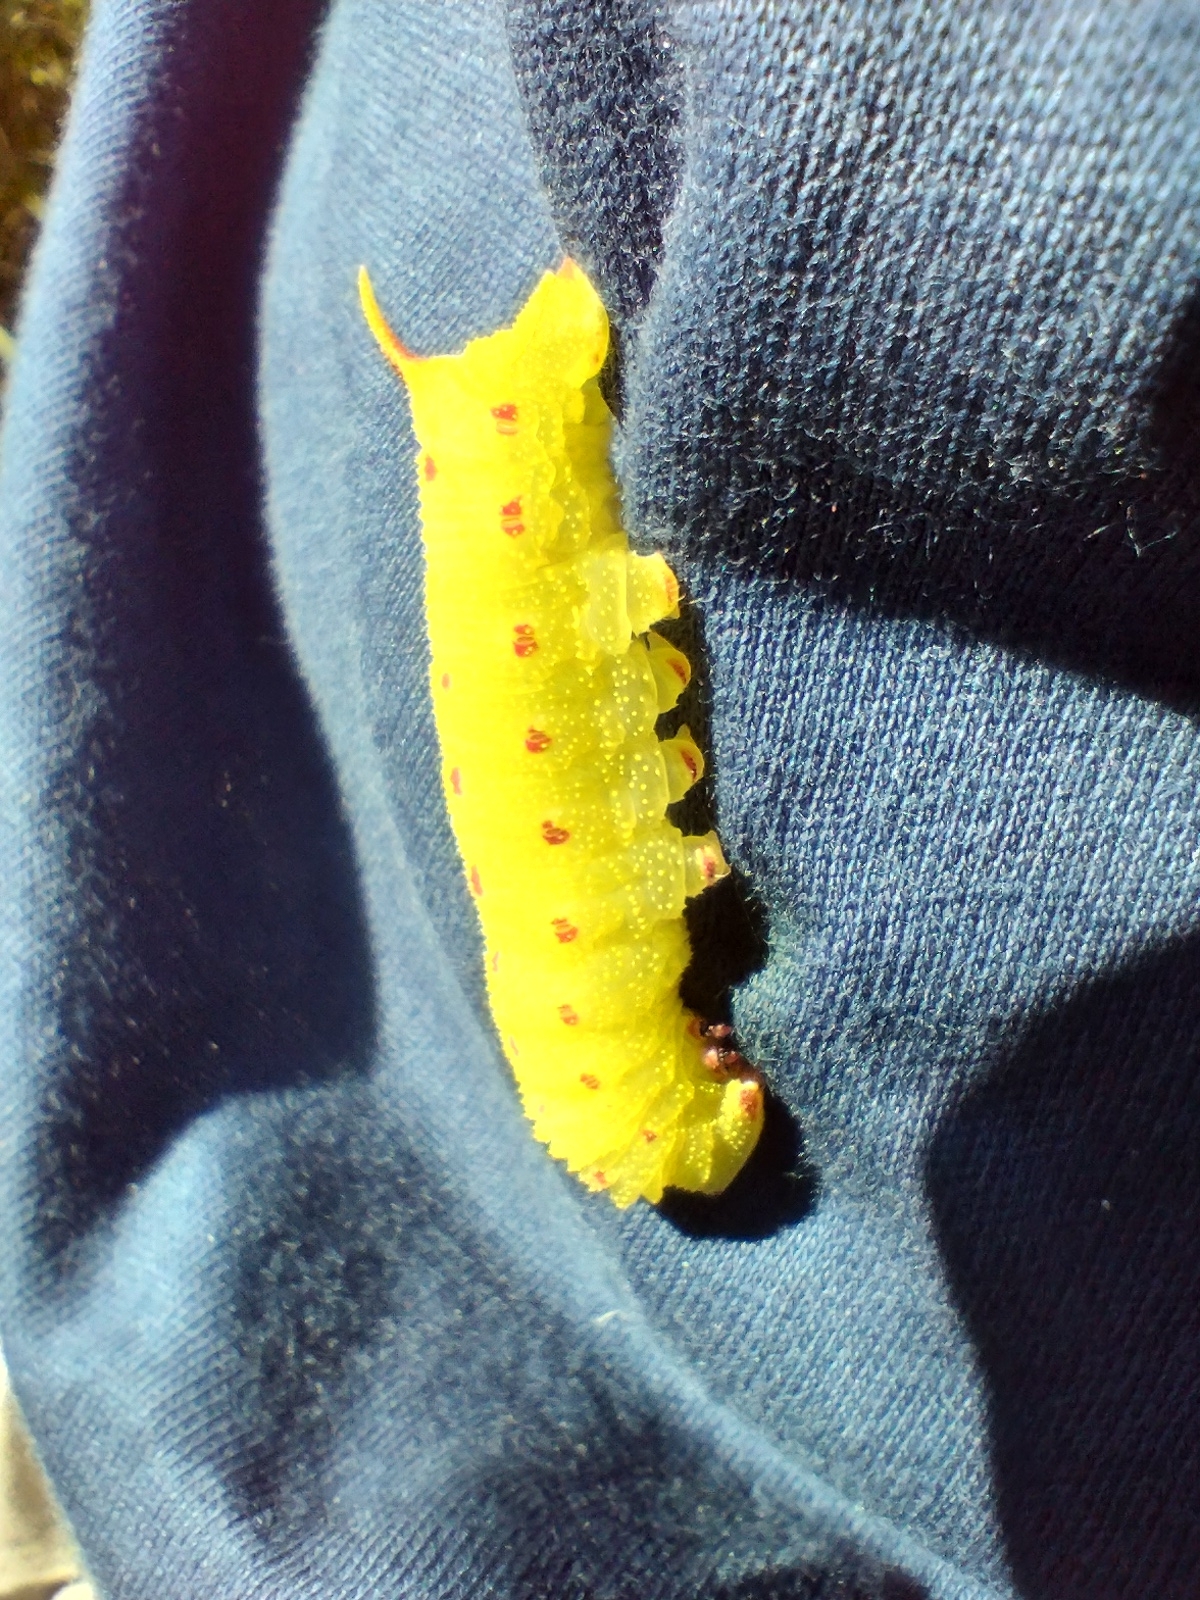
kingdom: Animalia
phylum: Arthropoda
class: Insecta
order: Lepidoptera
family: Sphingidae
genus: Laothoe
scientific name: Laothoe populi
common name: Poplar hawk-moth
